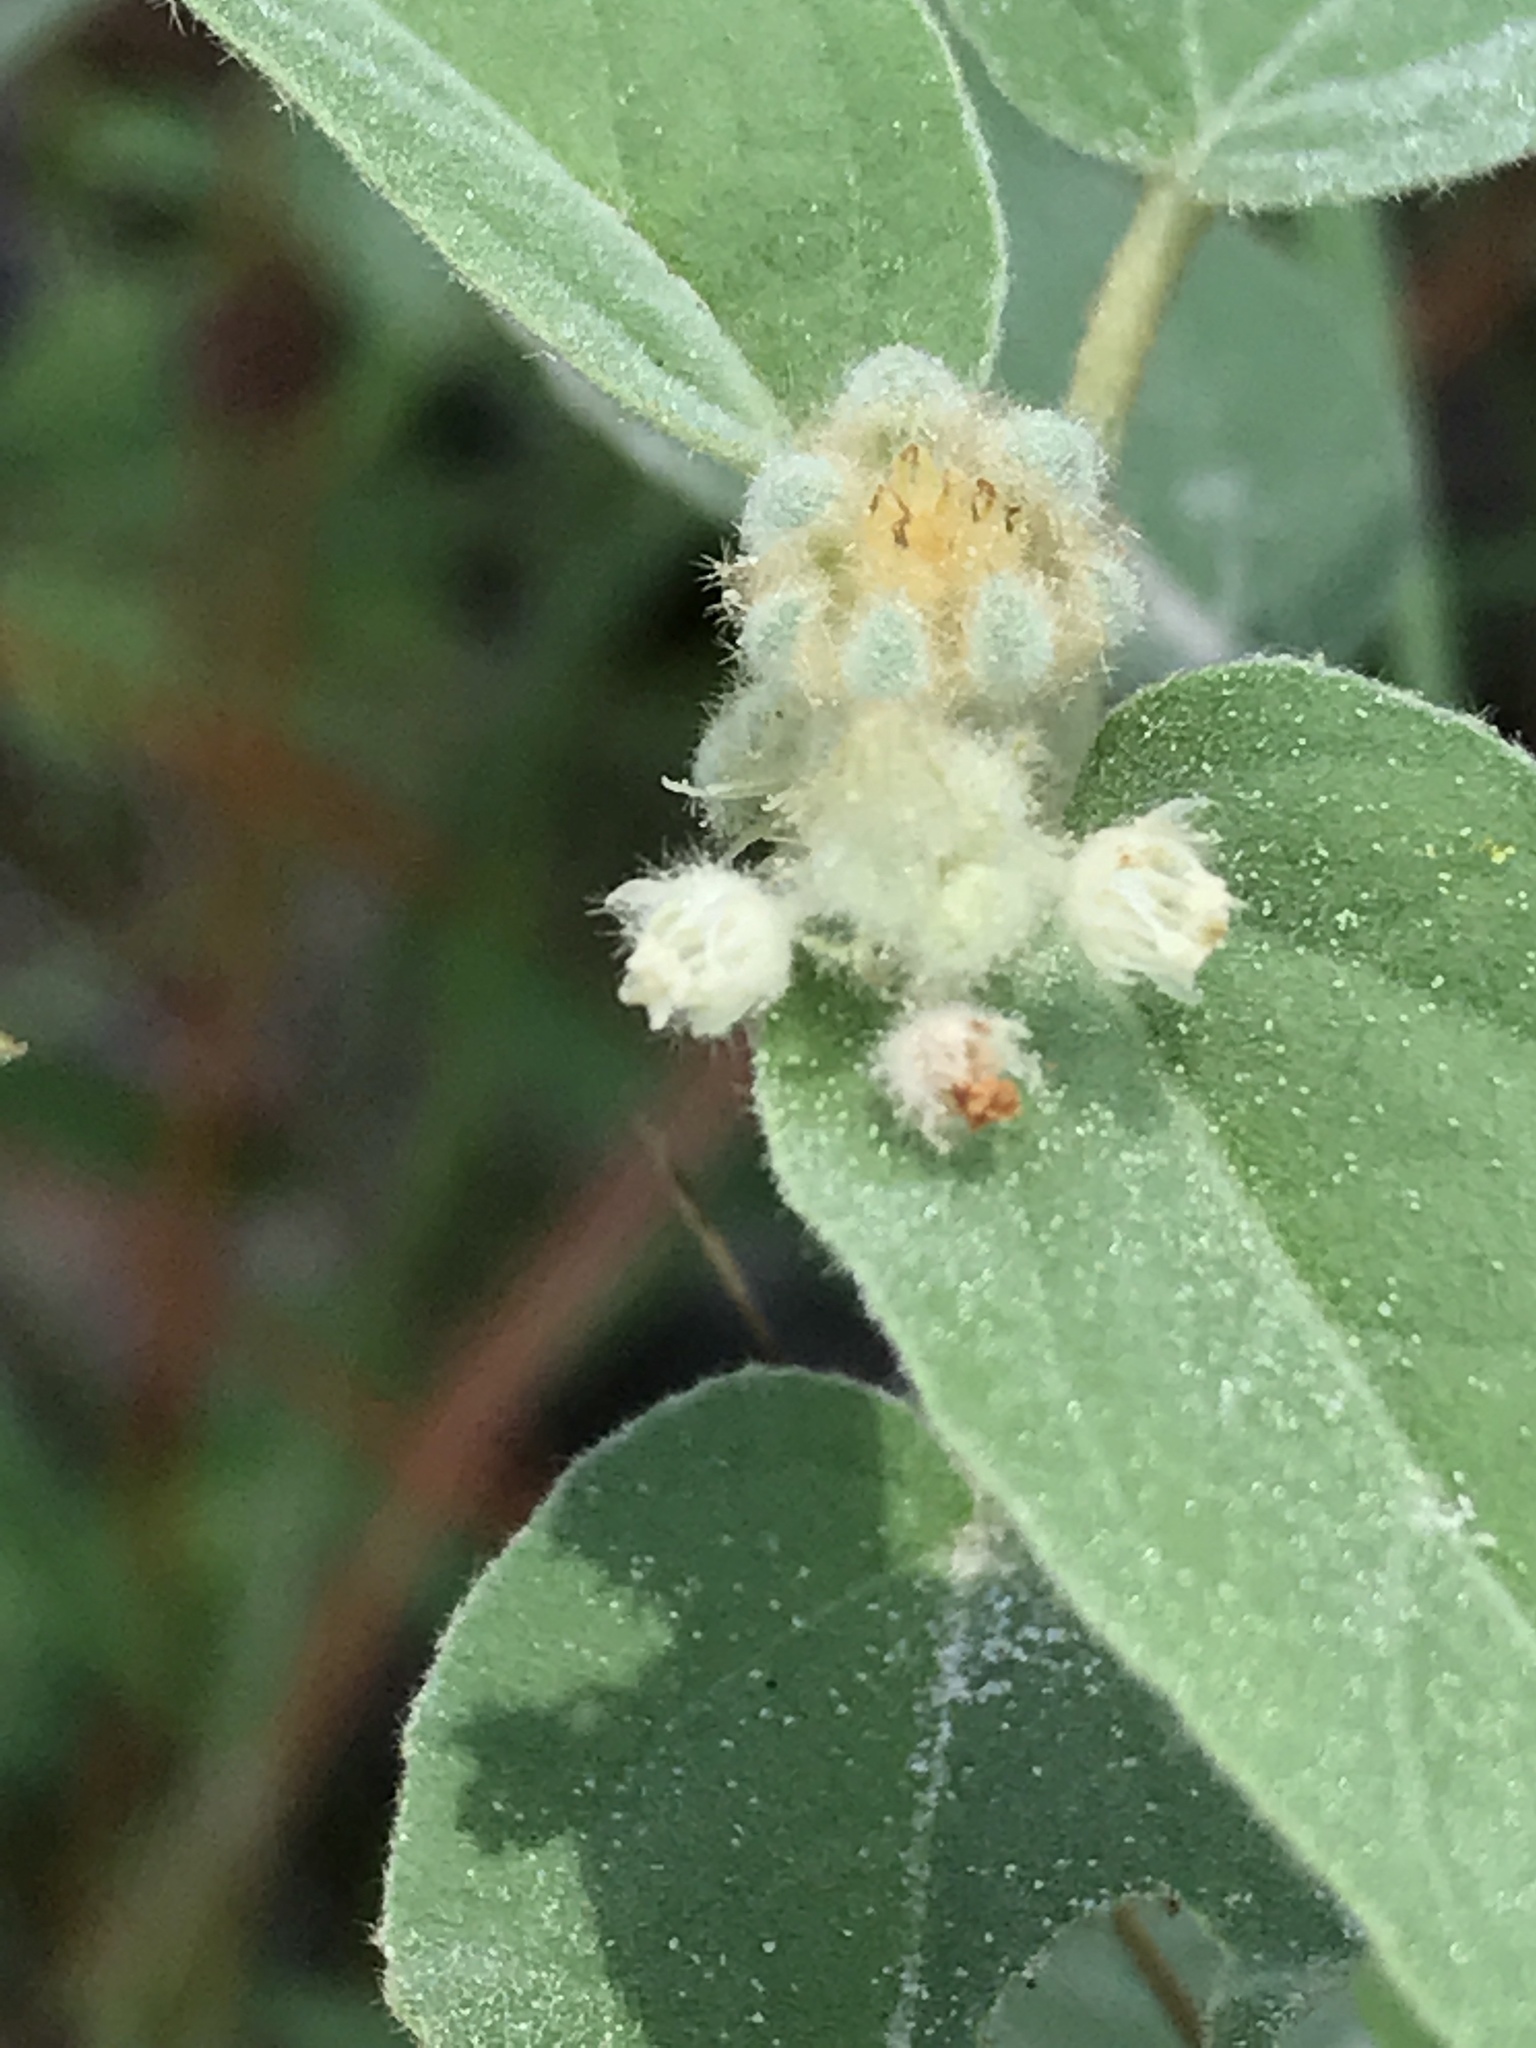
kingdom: Plantae
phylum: Tracheophyta
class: Magnoliopsida
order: Malpighiales
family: Euphorbiaceae
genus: Croton
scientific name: Croton lindheimeri
